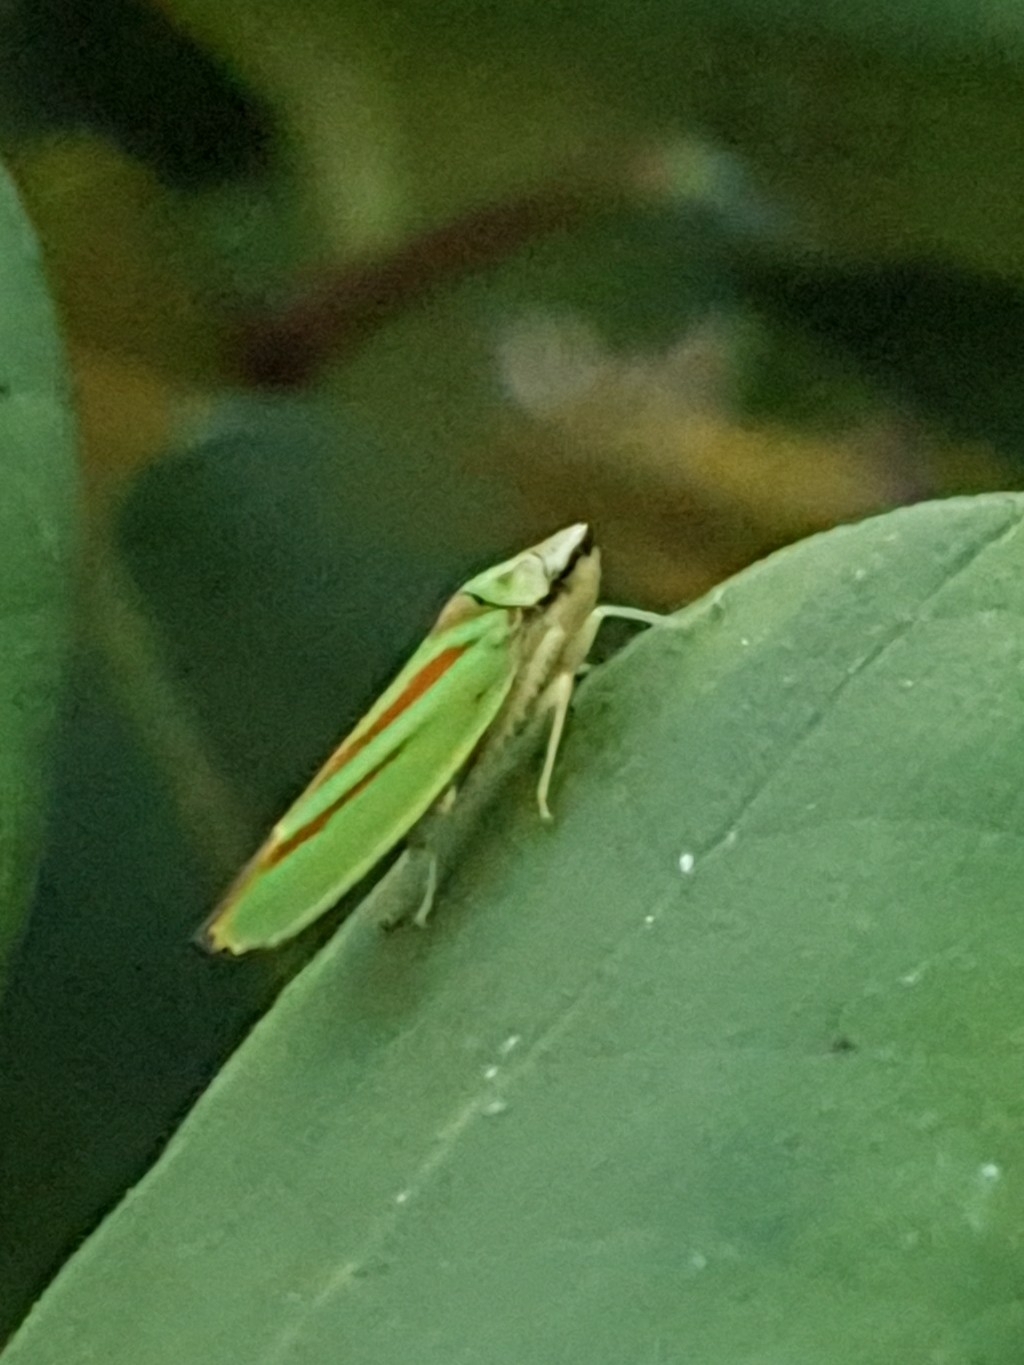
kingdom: Animalia
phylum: Arthropoda
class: Insecta
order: Hemiptera
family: Cicadellidae
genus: Graphocephala
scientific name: Graphocephala fennahi
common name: Rhododendron leafhopper
